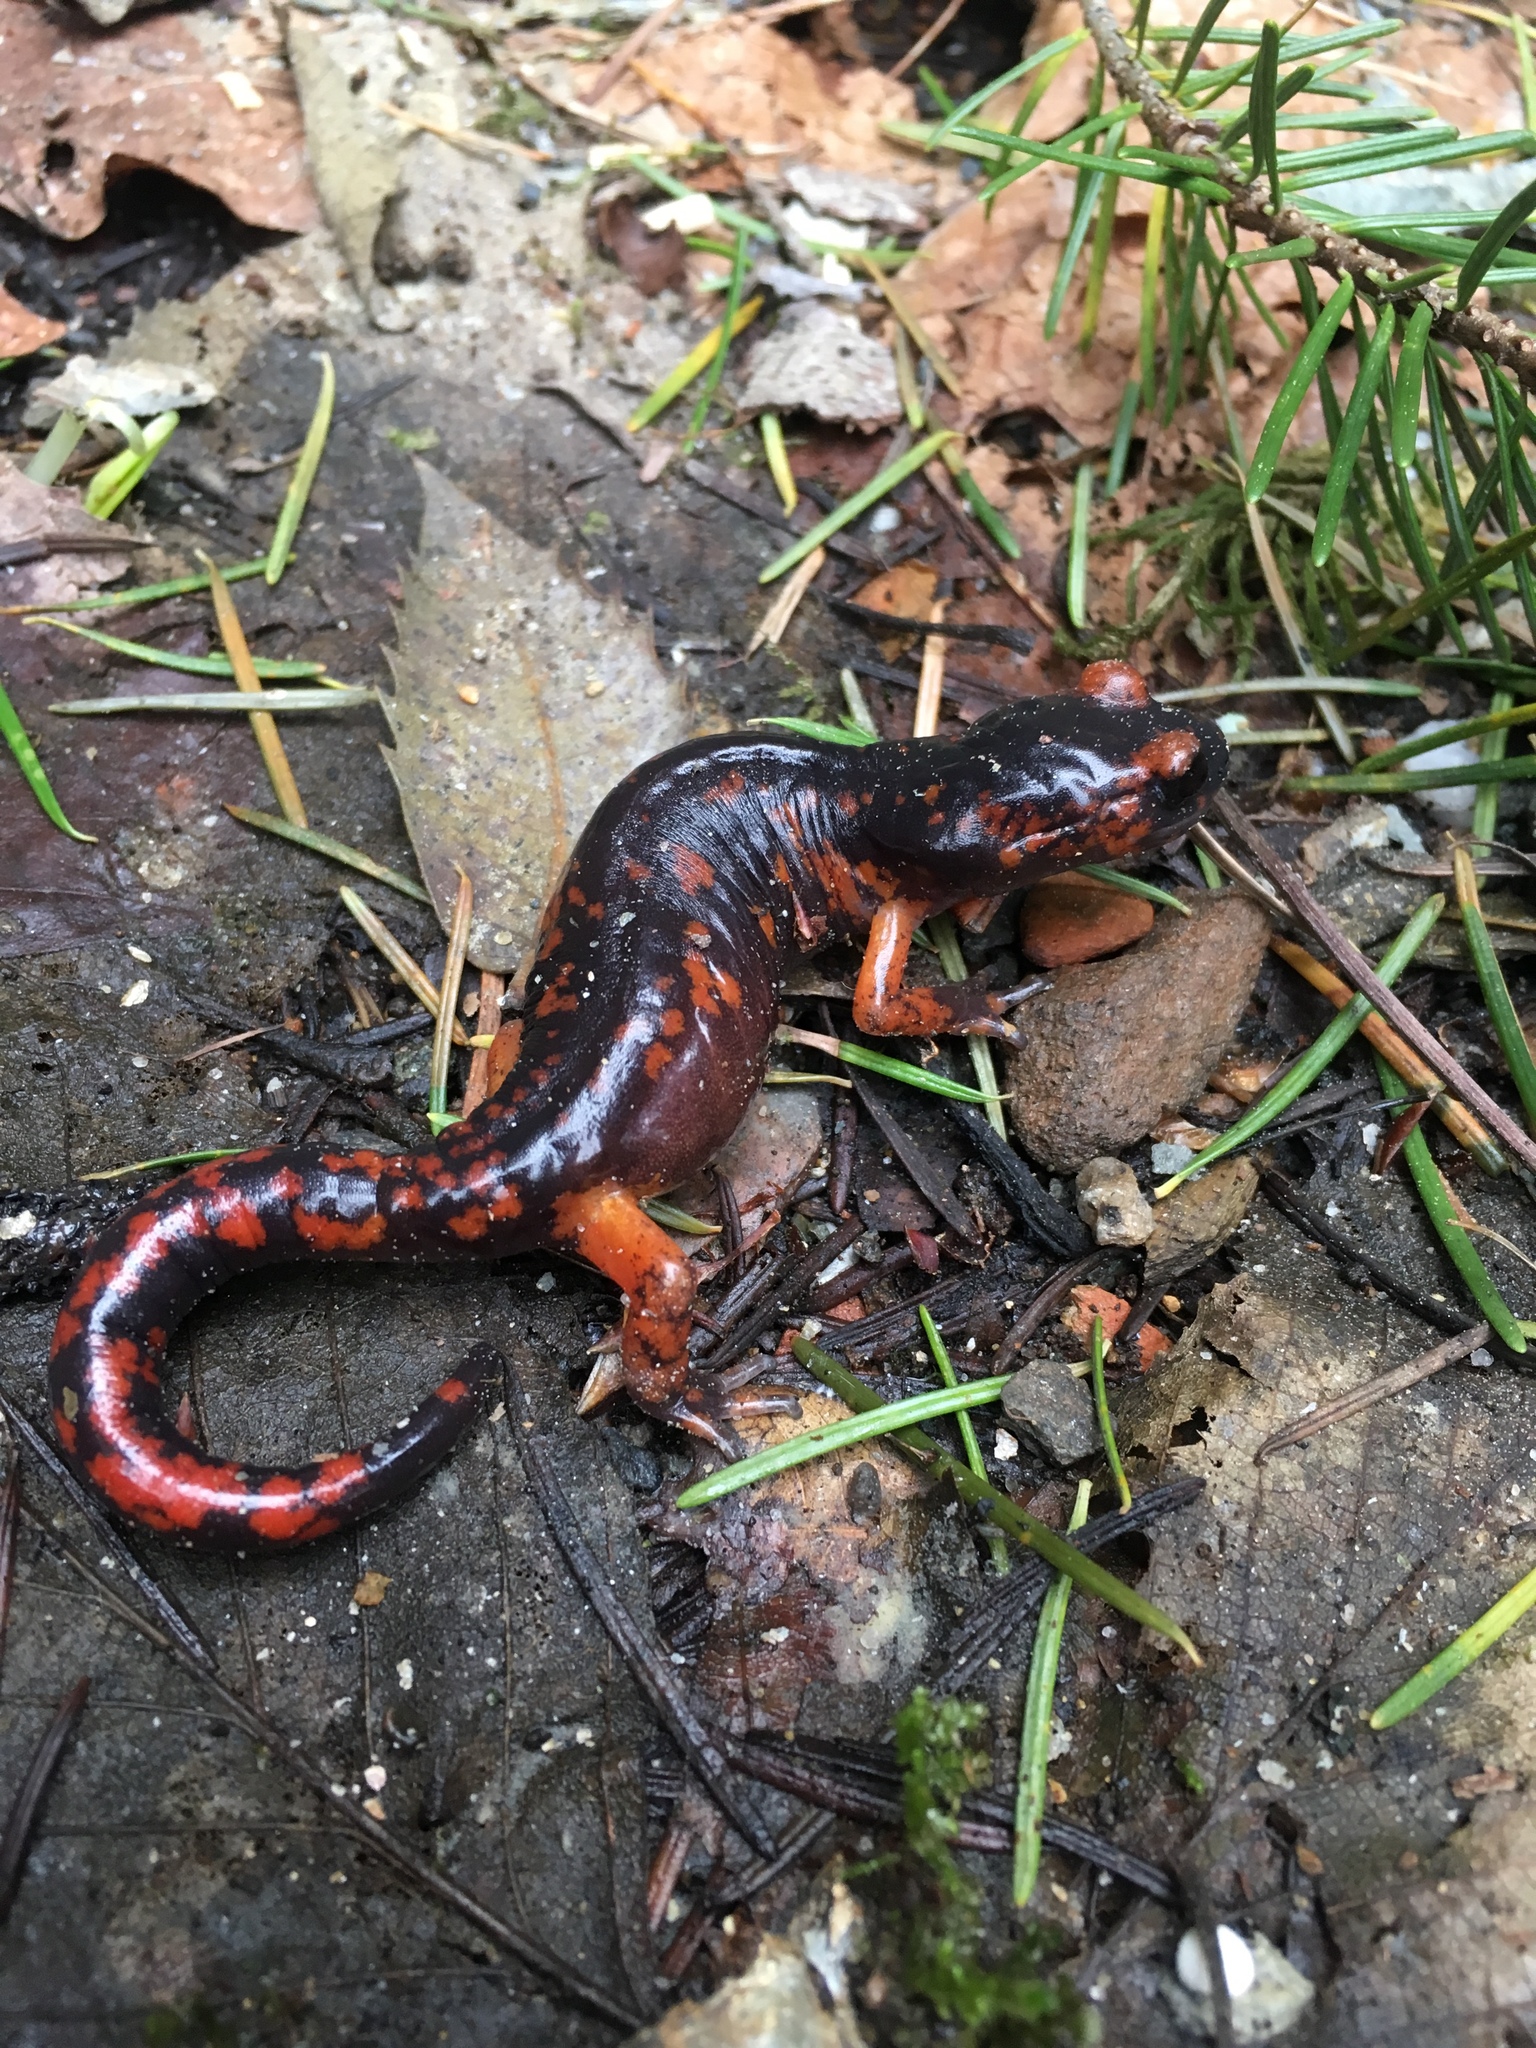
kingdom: Animalia
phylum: Chordata
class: Amphibia
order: Caudata
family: Plethodontidae
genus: Ensatina
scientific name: Ensatina eschscholtzii
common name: Ensatina
